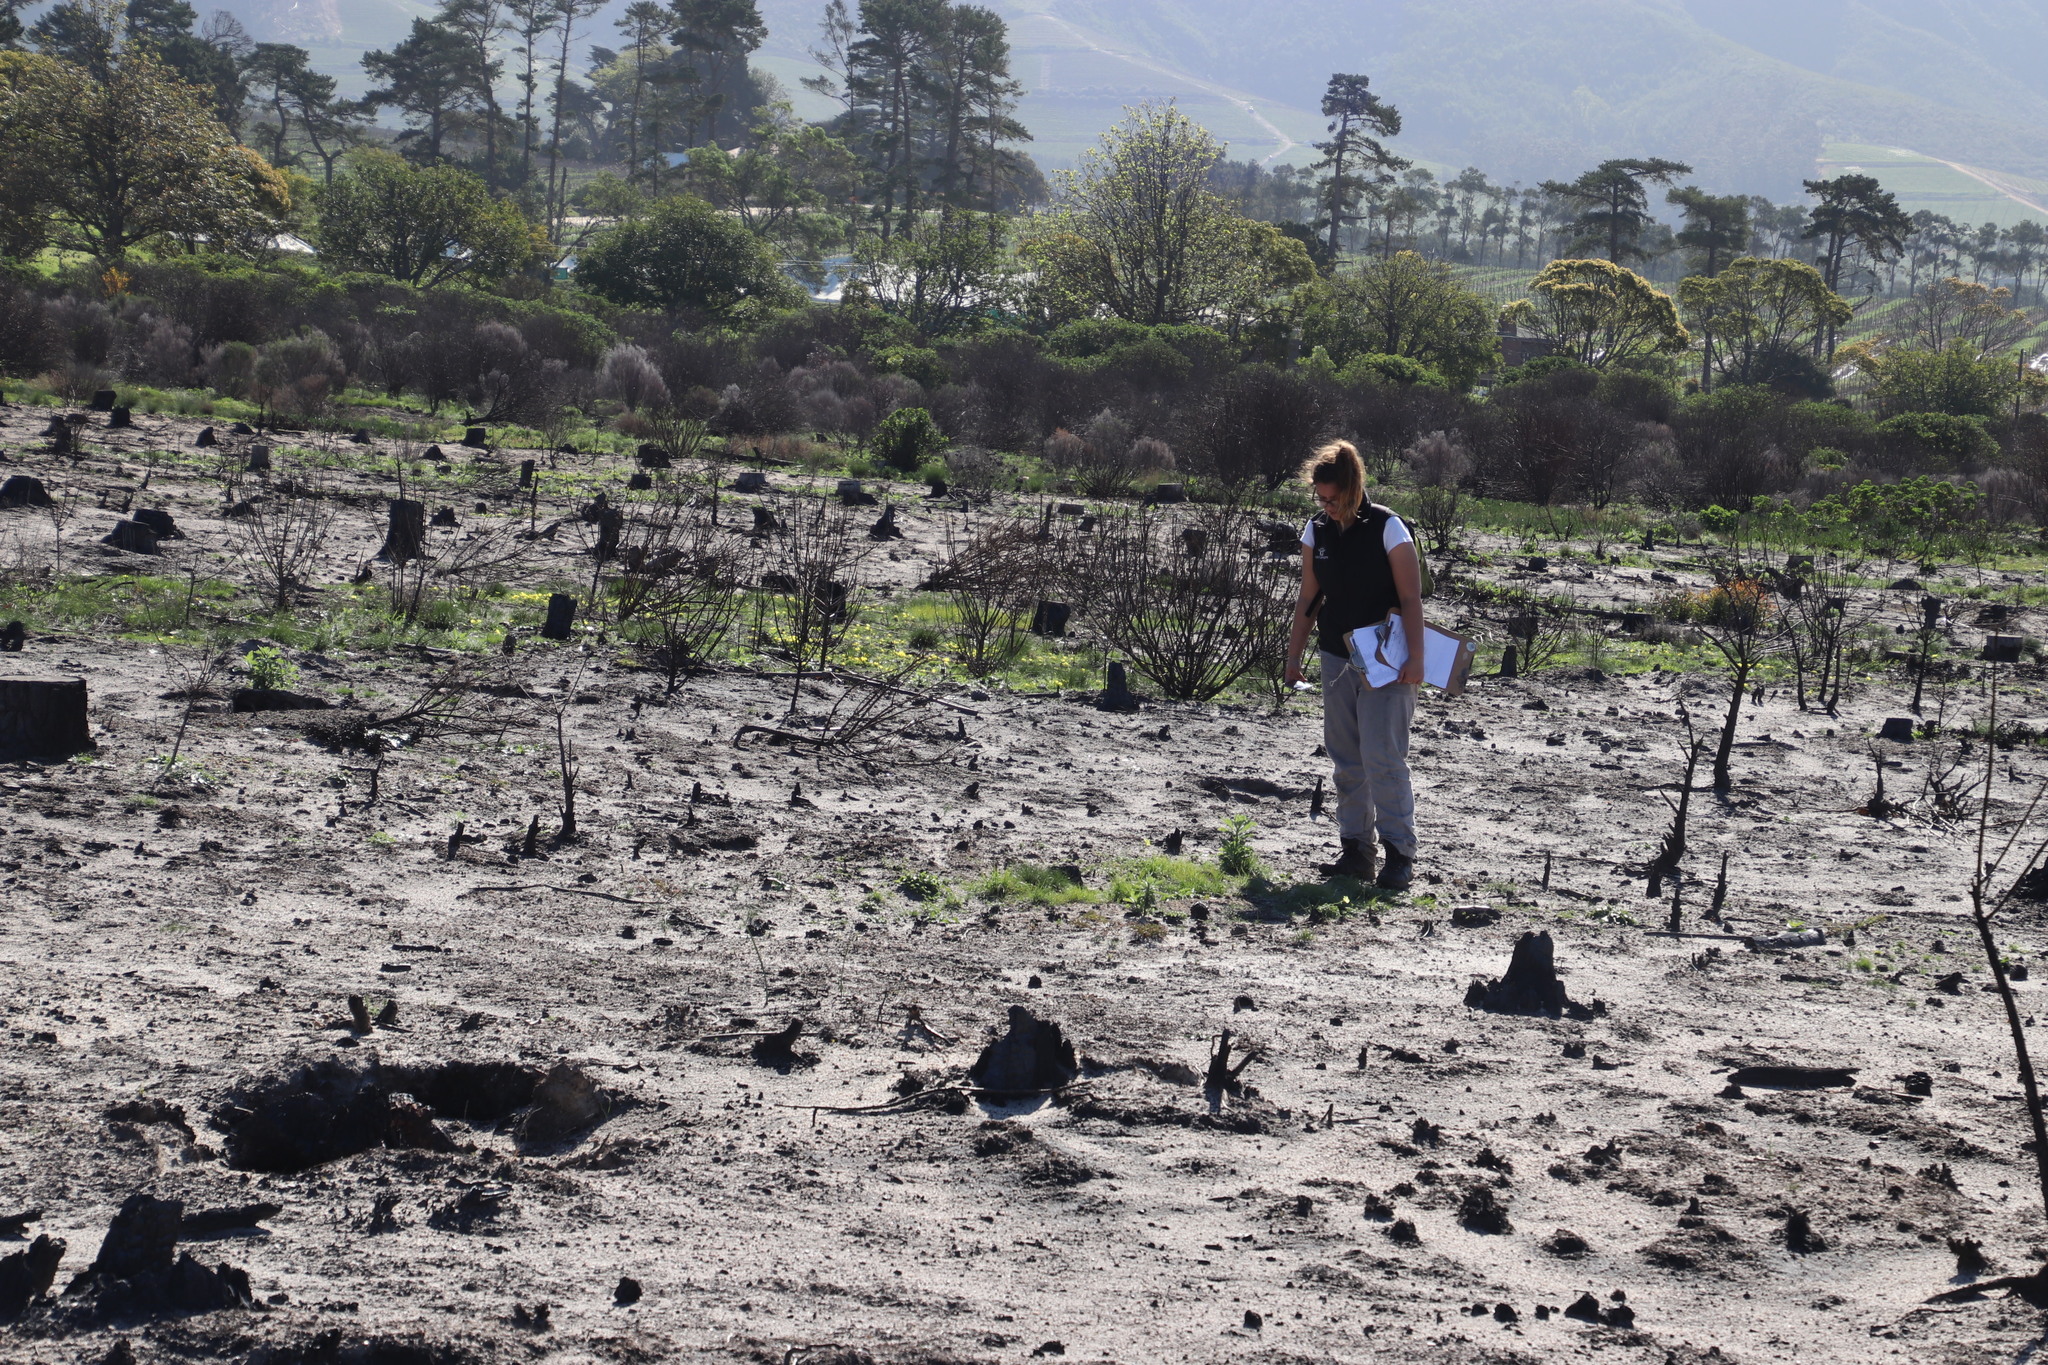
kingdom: Plantae
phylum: Tracheophyta
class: Magnoliopsida
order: Asterales
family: Asteraceae
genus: Senecio
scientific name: Senecio pterophorus
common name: Shoddy ragwort
